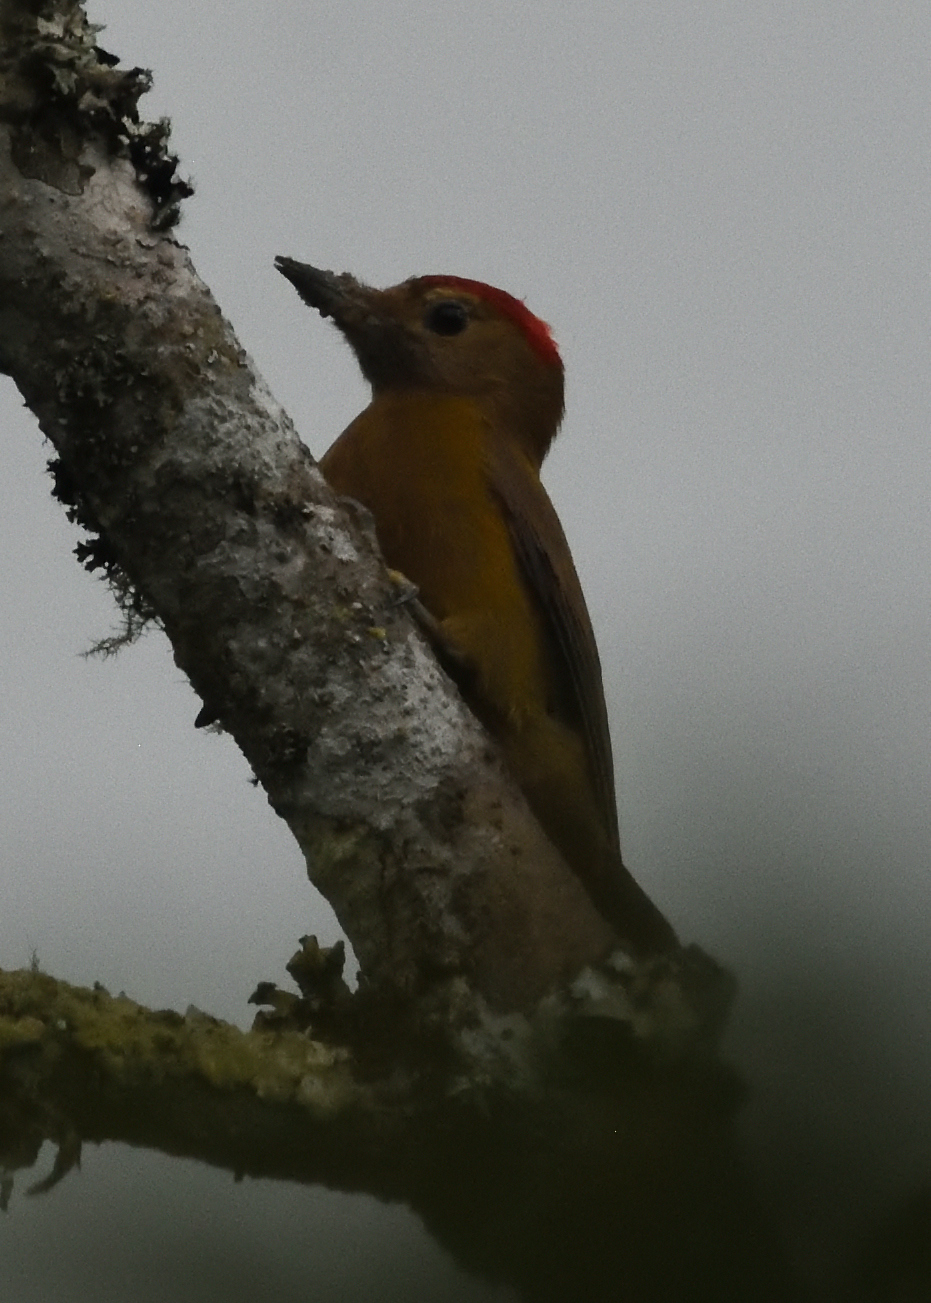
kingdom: Animalia
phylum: Chordata
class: Aves
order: Piciformes
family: Picidae
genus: Leuconotopicus
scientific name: Leuconotopicus fumigatus
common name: Smoky-brown woodpecker
